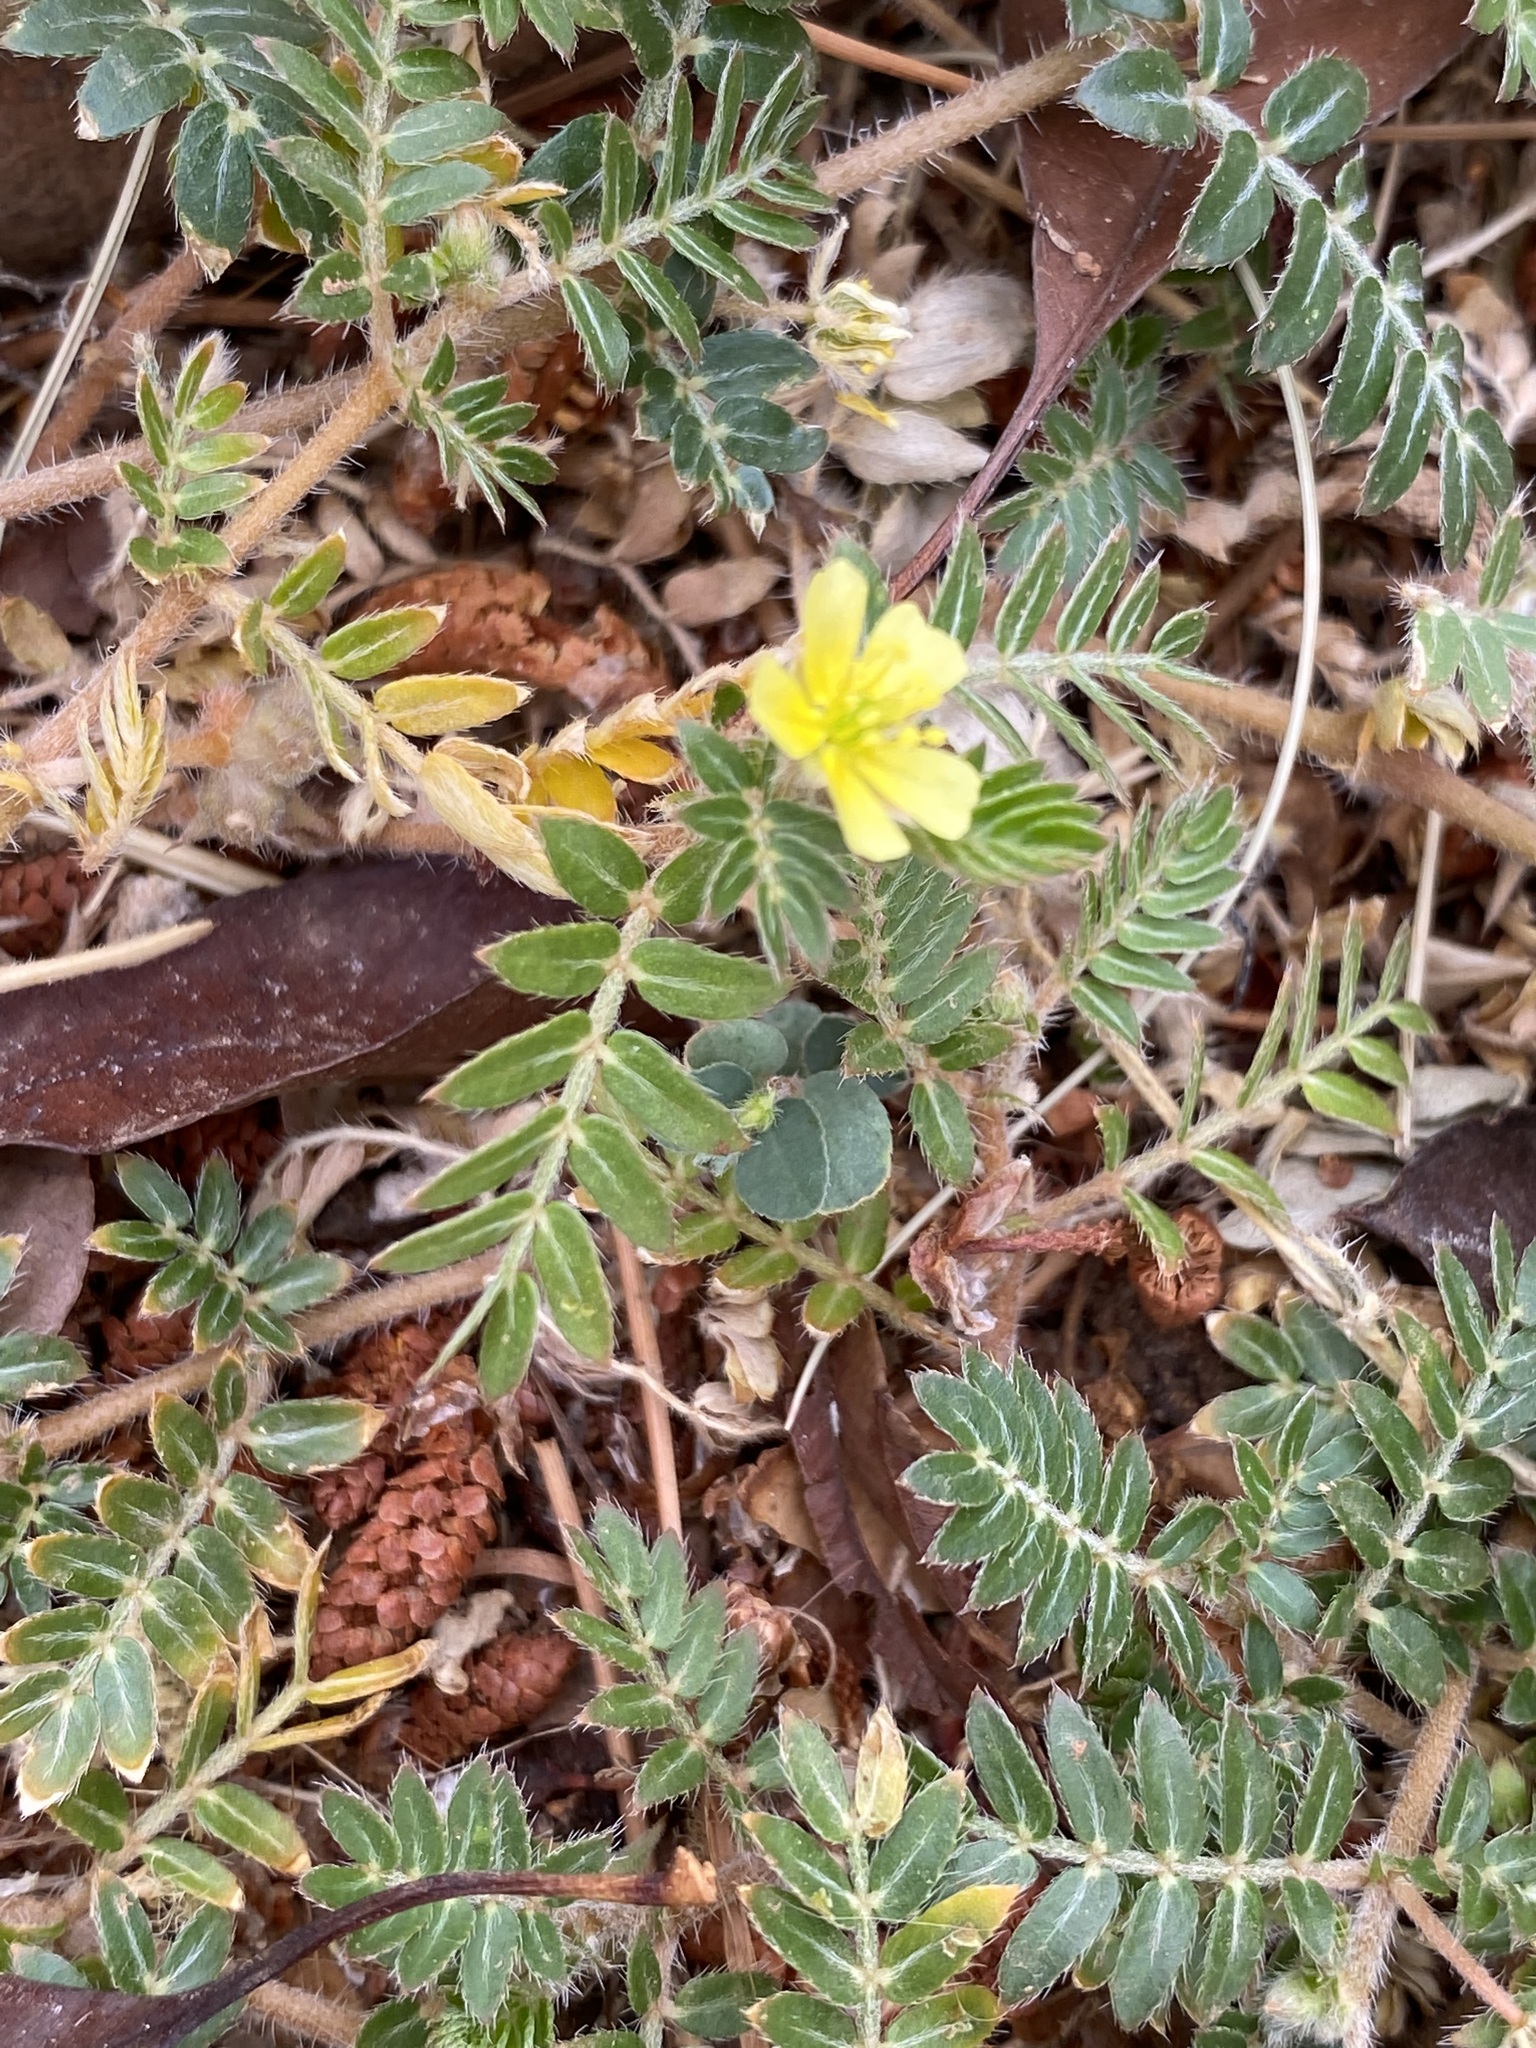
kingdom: Plantae
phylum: Tracheophyta
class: Magnoliopsida
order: Zygophyllales
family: Zygophyllaceae
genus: Tribulus
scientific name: Tribulus terrestris
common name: Puncturevine
